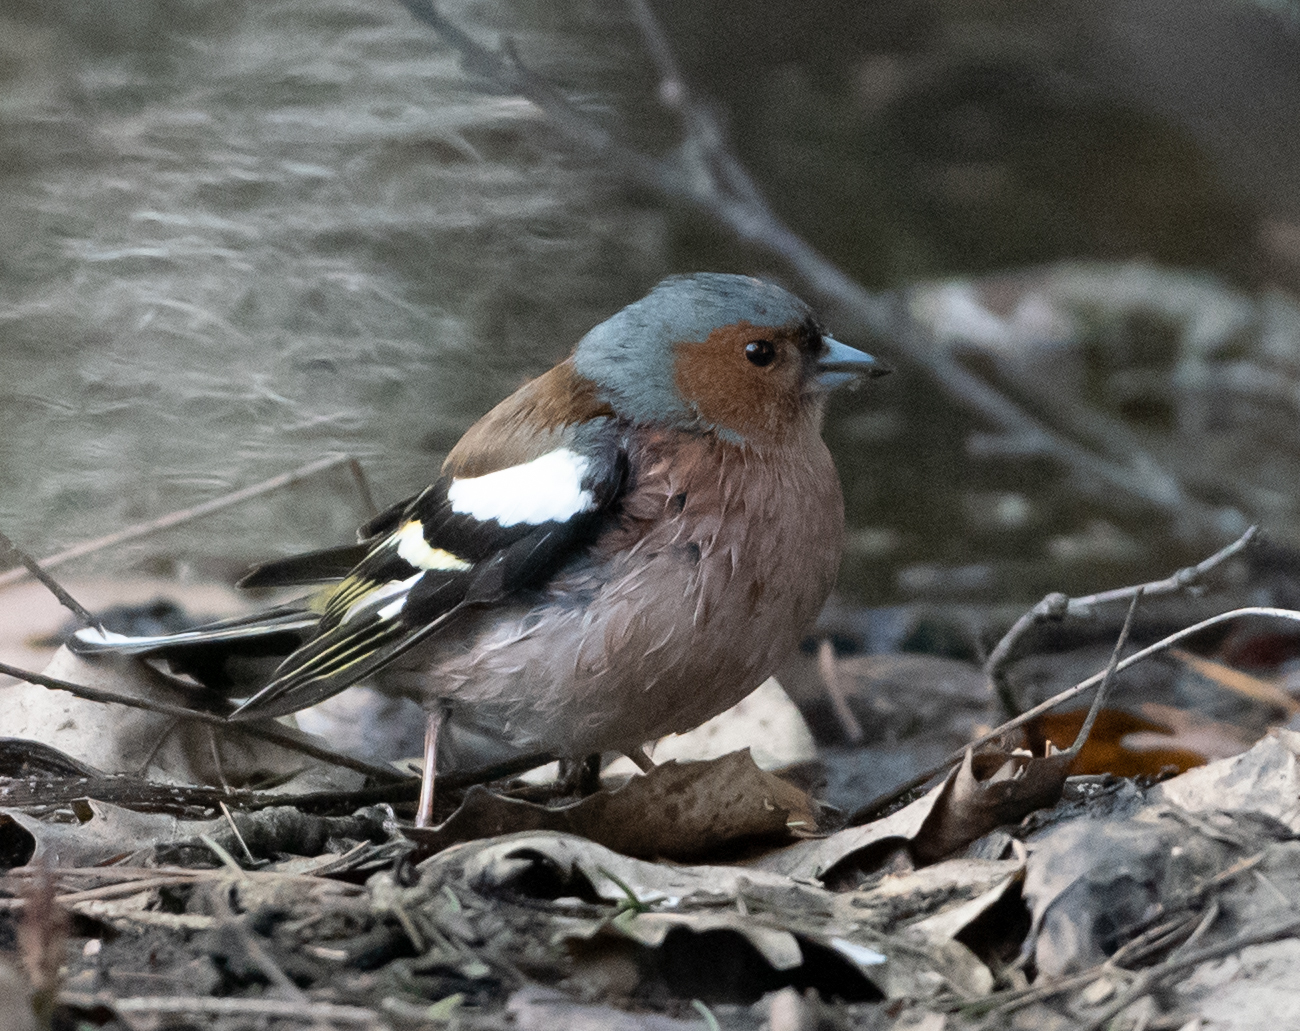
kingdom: Animalia
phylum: Chordata
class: Aves
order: Passeriformes
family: Fringillidae
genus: Fringilla
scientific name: Fringilla coelebs
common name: Common chaffinch
